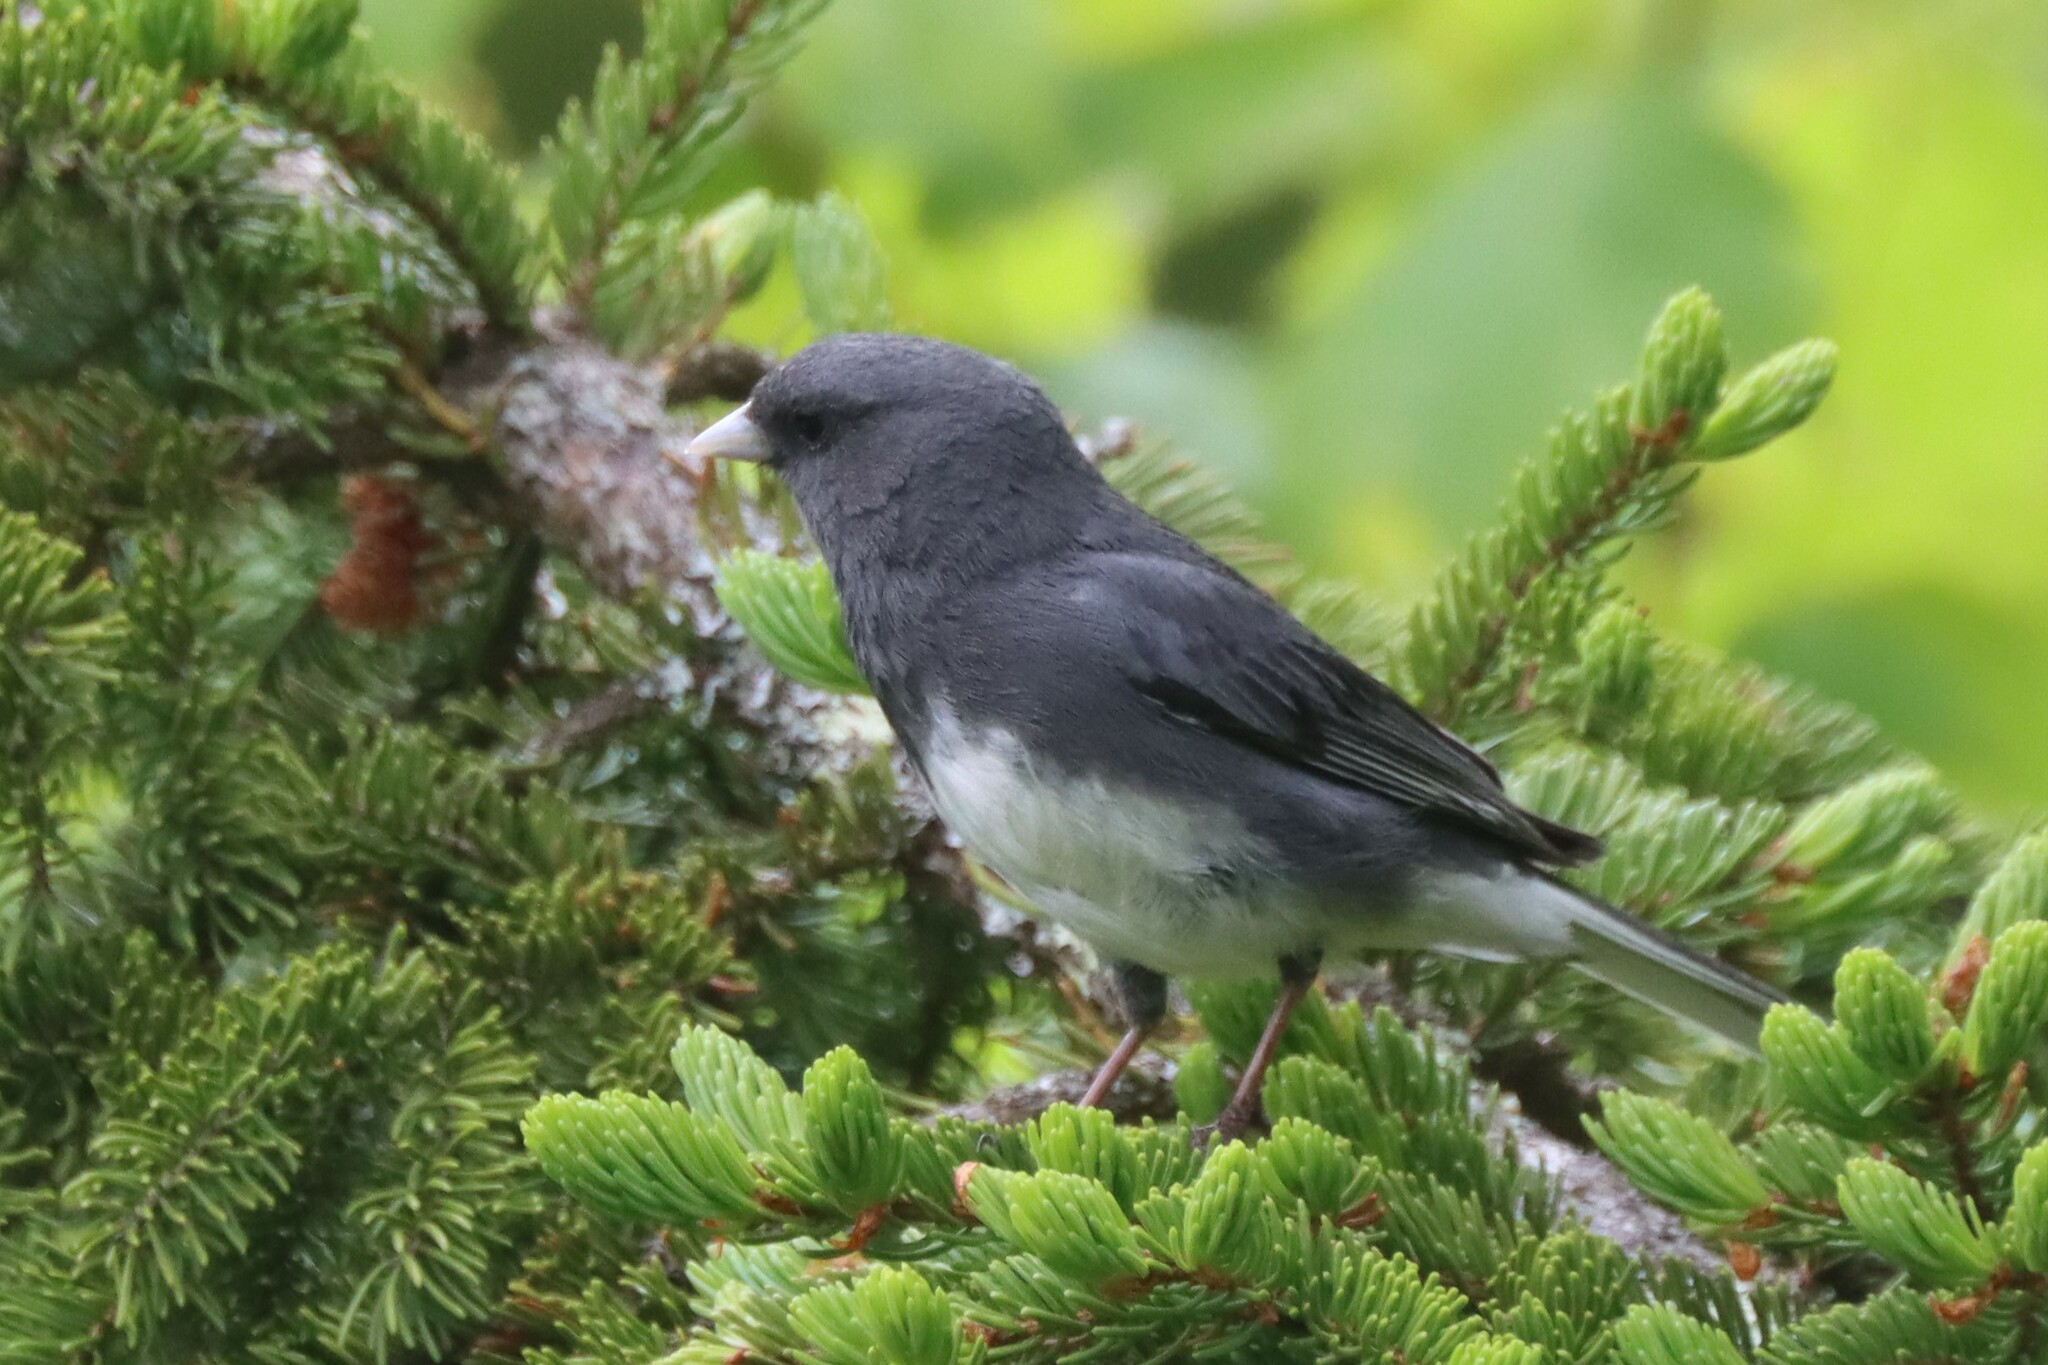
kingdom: Animalia
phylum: Chordata
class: Aves
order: Passeriformes
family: Passerellidae
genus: Junco
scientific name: Junco hyemalis
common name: Dark-eyed junco
